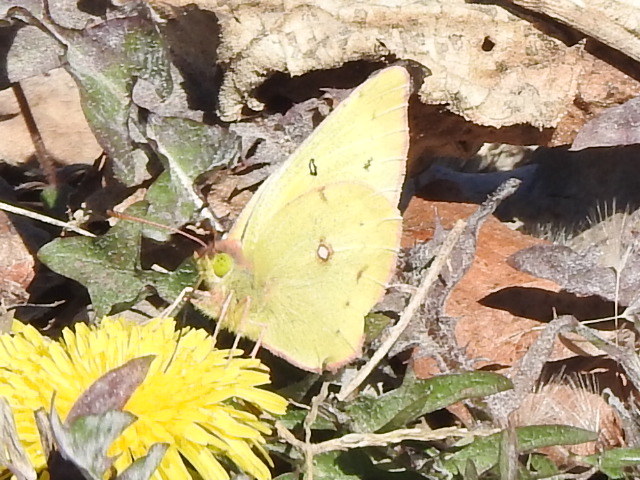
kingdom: Animalia
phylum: Arthropoda
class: Insecta
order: Lepidoptera
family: Pieridae
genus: Colias
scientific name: Colias eurytheme
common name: Alfalfa butterfly
